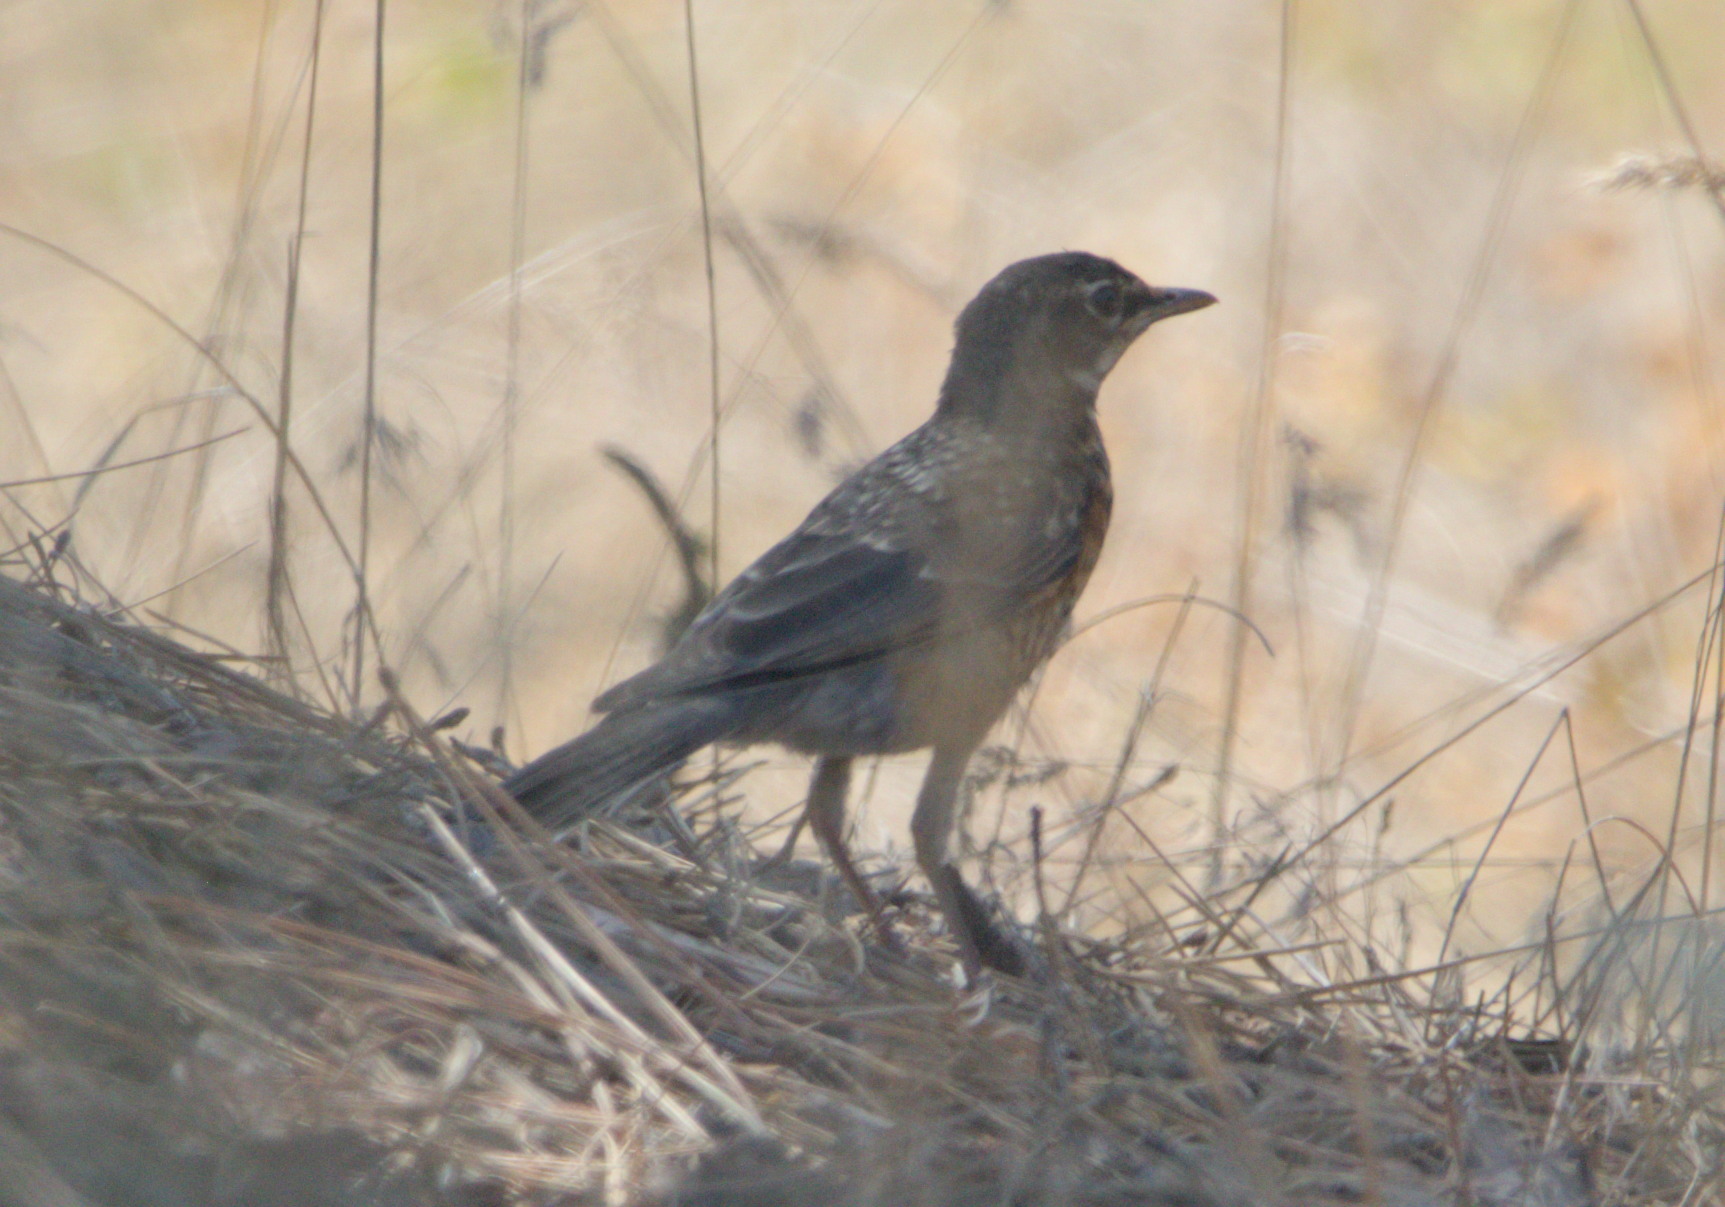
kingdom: Animalia
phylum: Chordata
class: Aves
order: Passeriformes
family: Turdidae
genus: Turdus
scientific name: Turdus migratorius
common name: American robin
